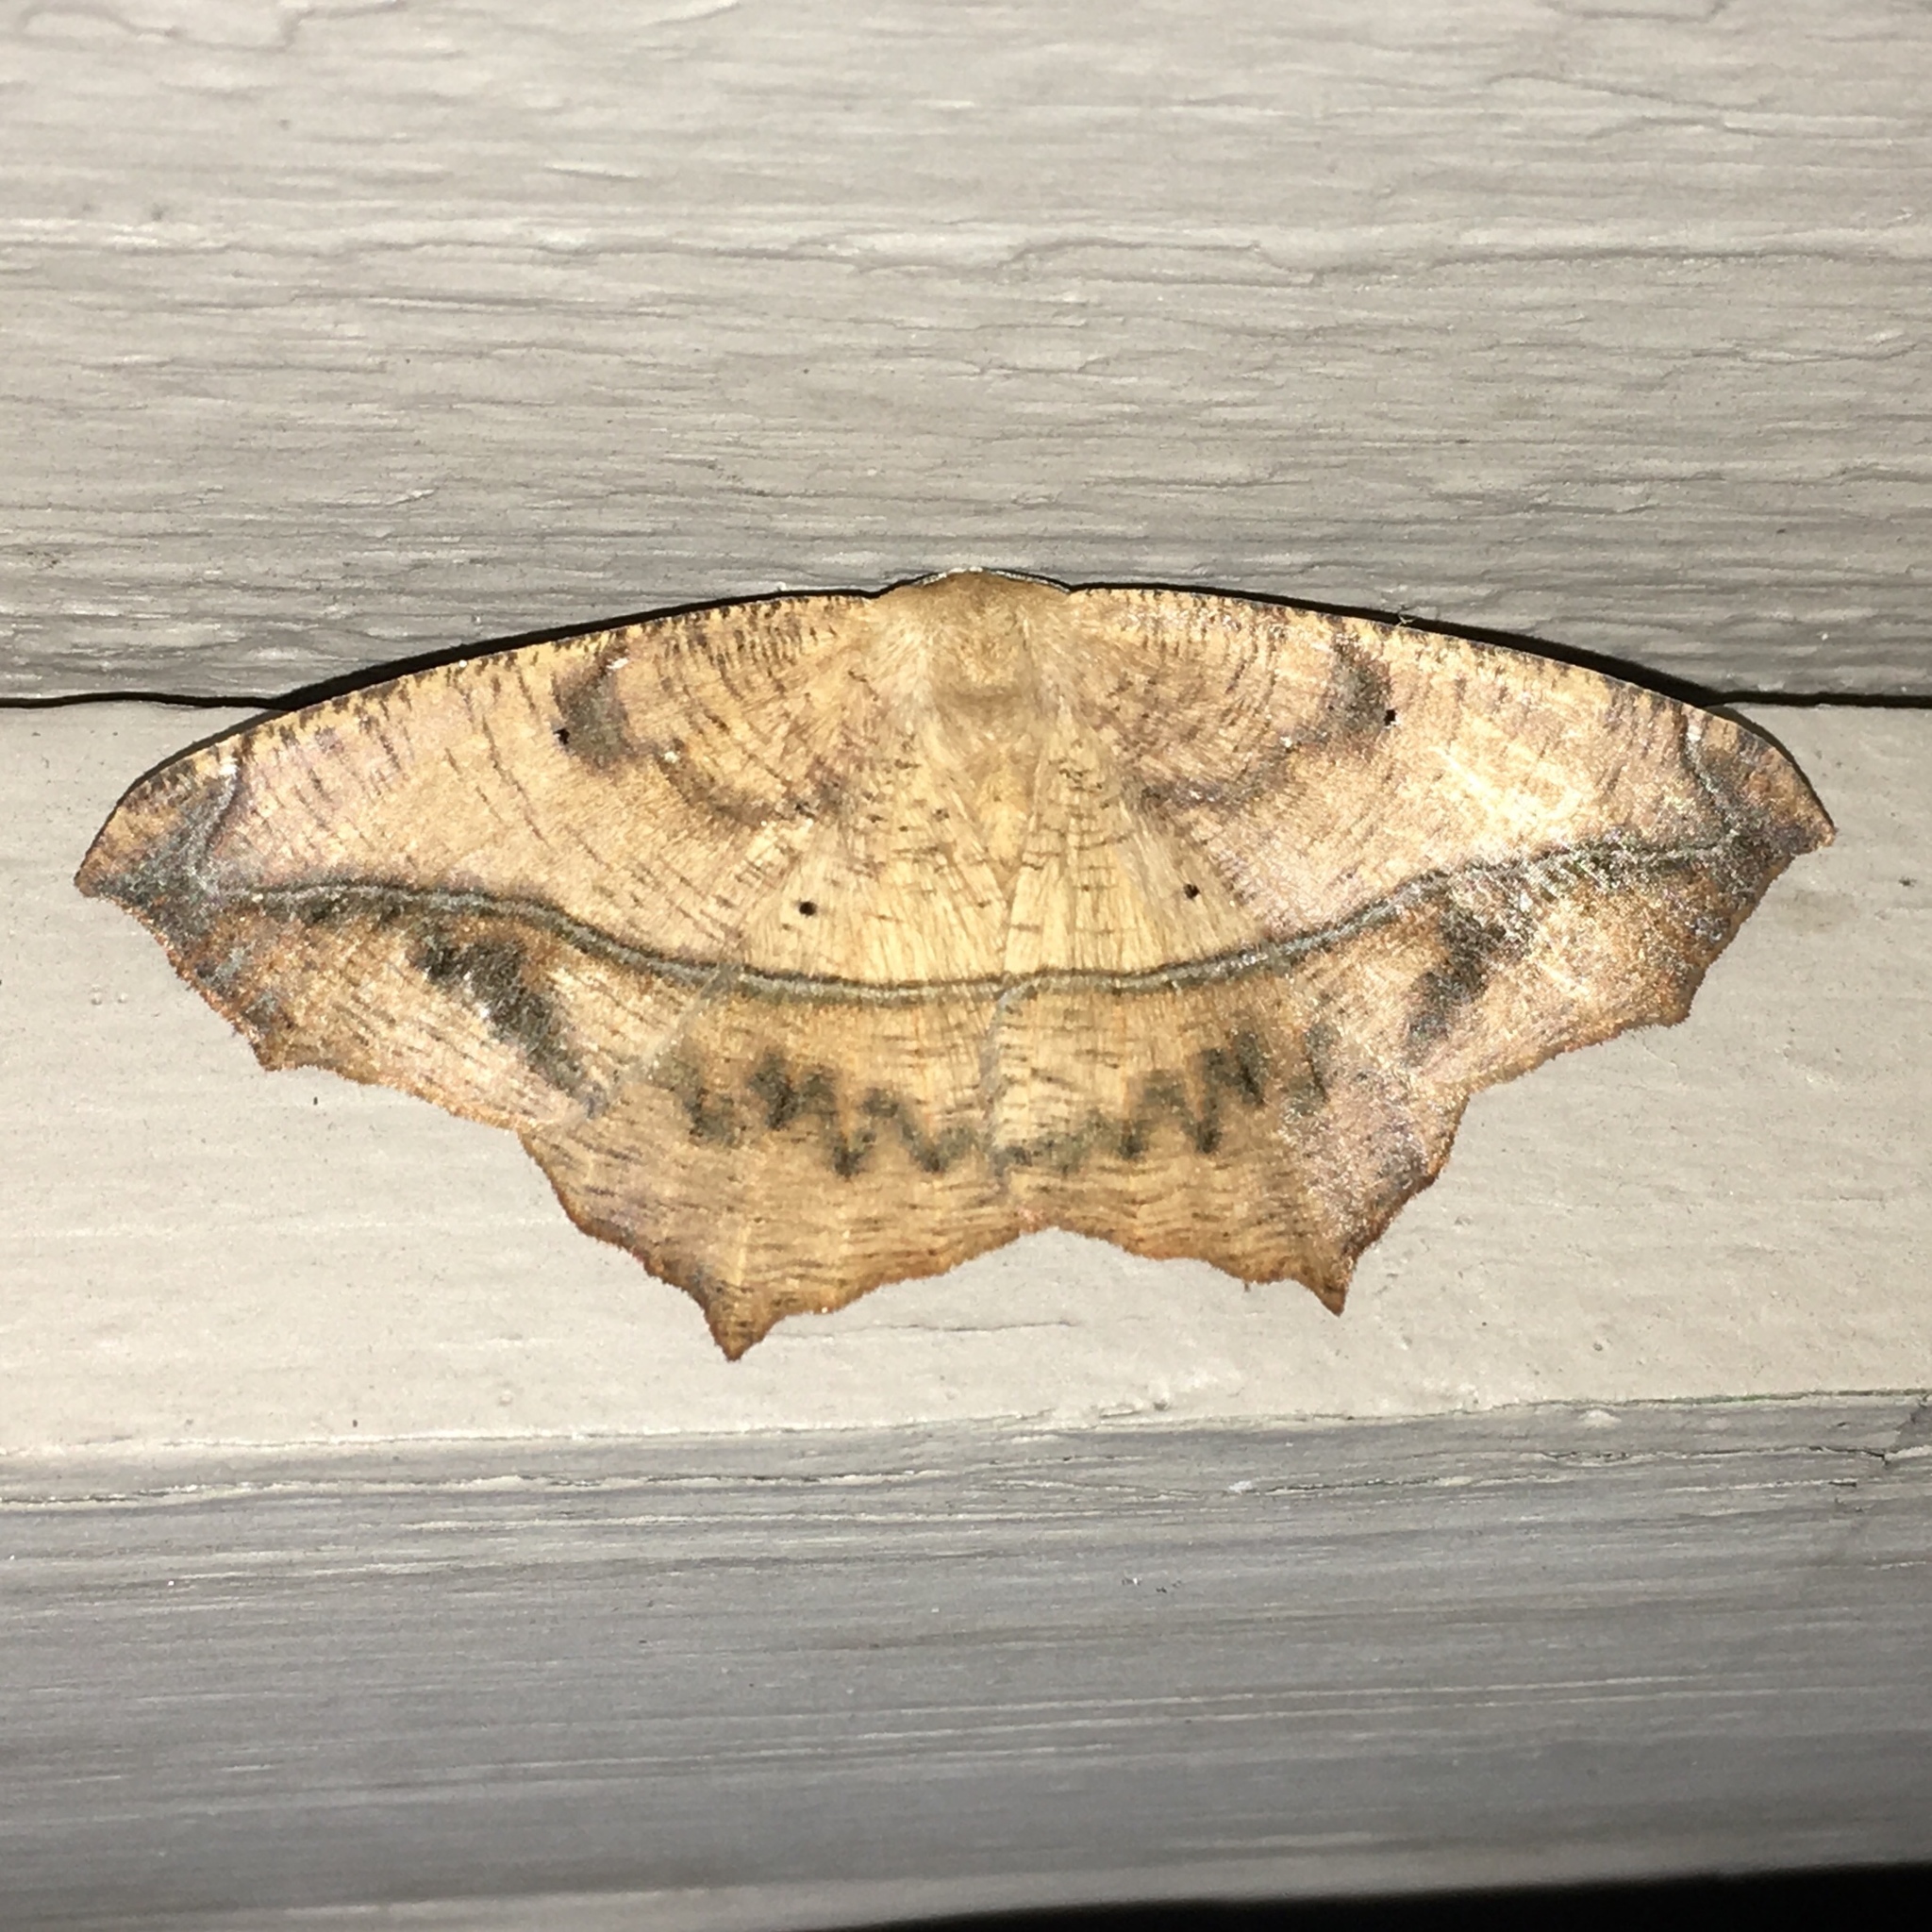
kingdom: Animalia
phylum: Arthropoda
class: Insecta
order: Lepidoptera
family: Geometridae
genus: Prochoerodes
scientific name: Prochoerodes lineola
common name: Large maple spanworm
